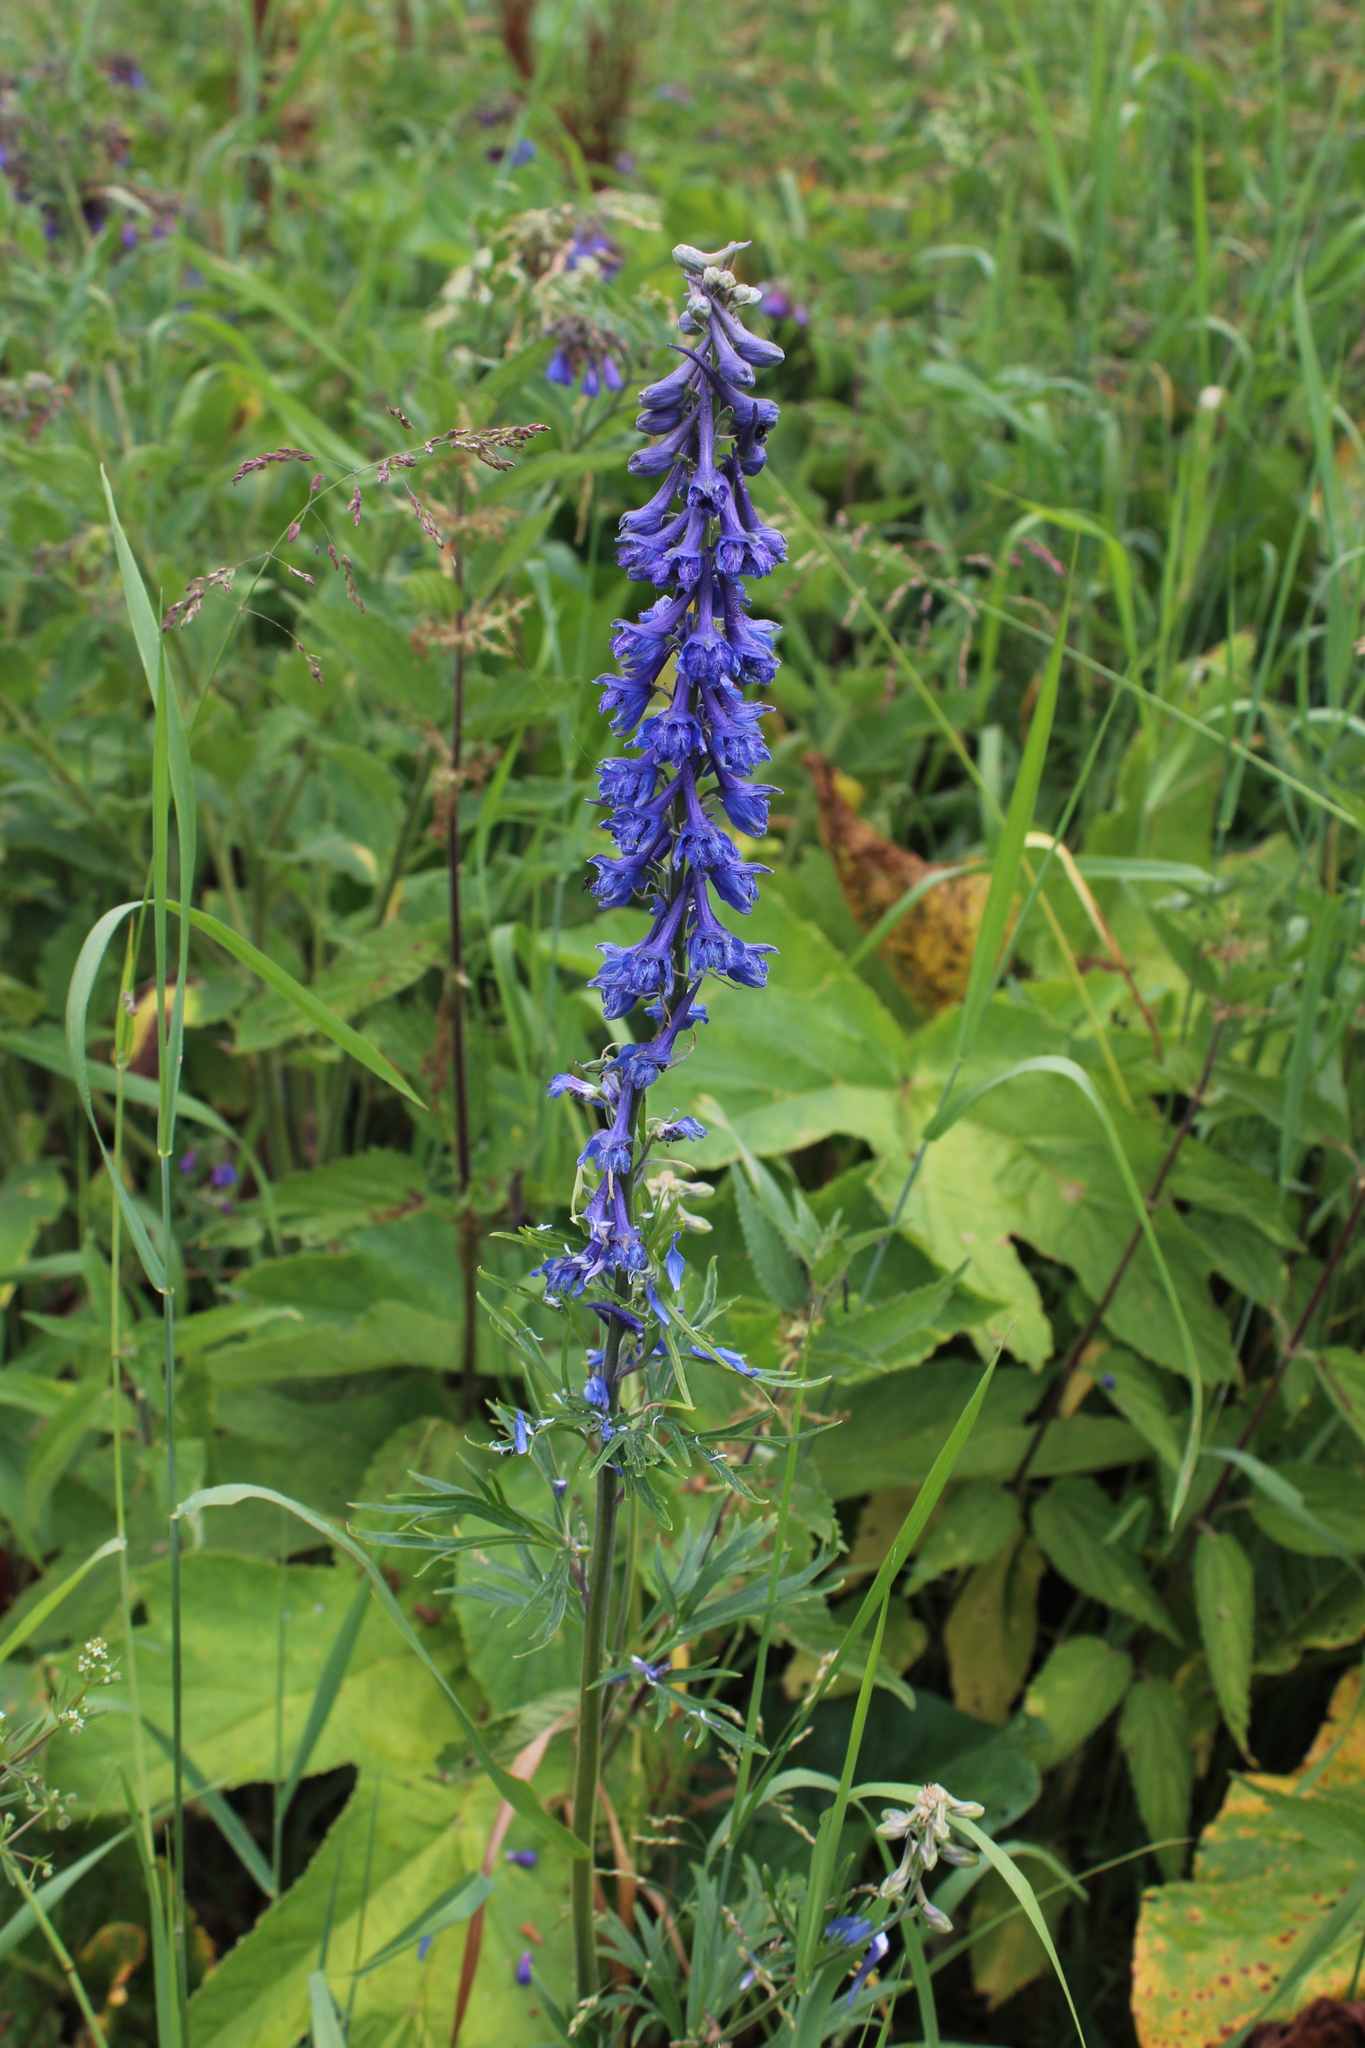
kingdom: Plantae
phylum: Tracheophyta
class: Magnoliopsida
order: Ranunculales
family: Ranunculaceae
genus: Delphinium
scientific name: Delphinium schmalhausenii
